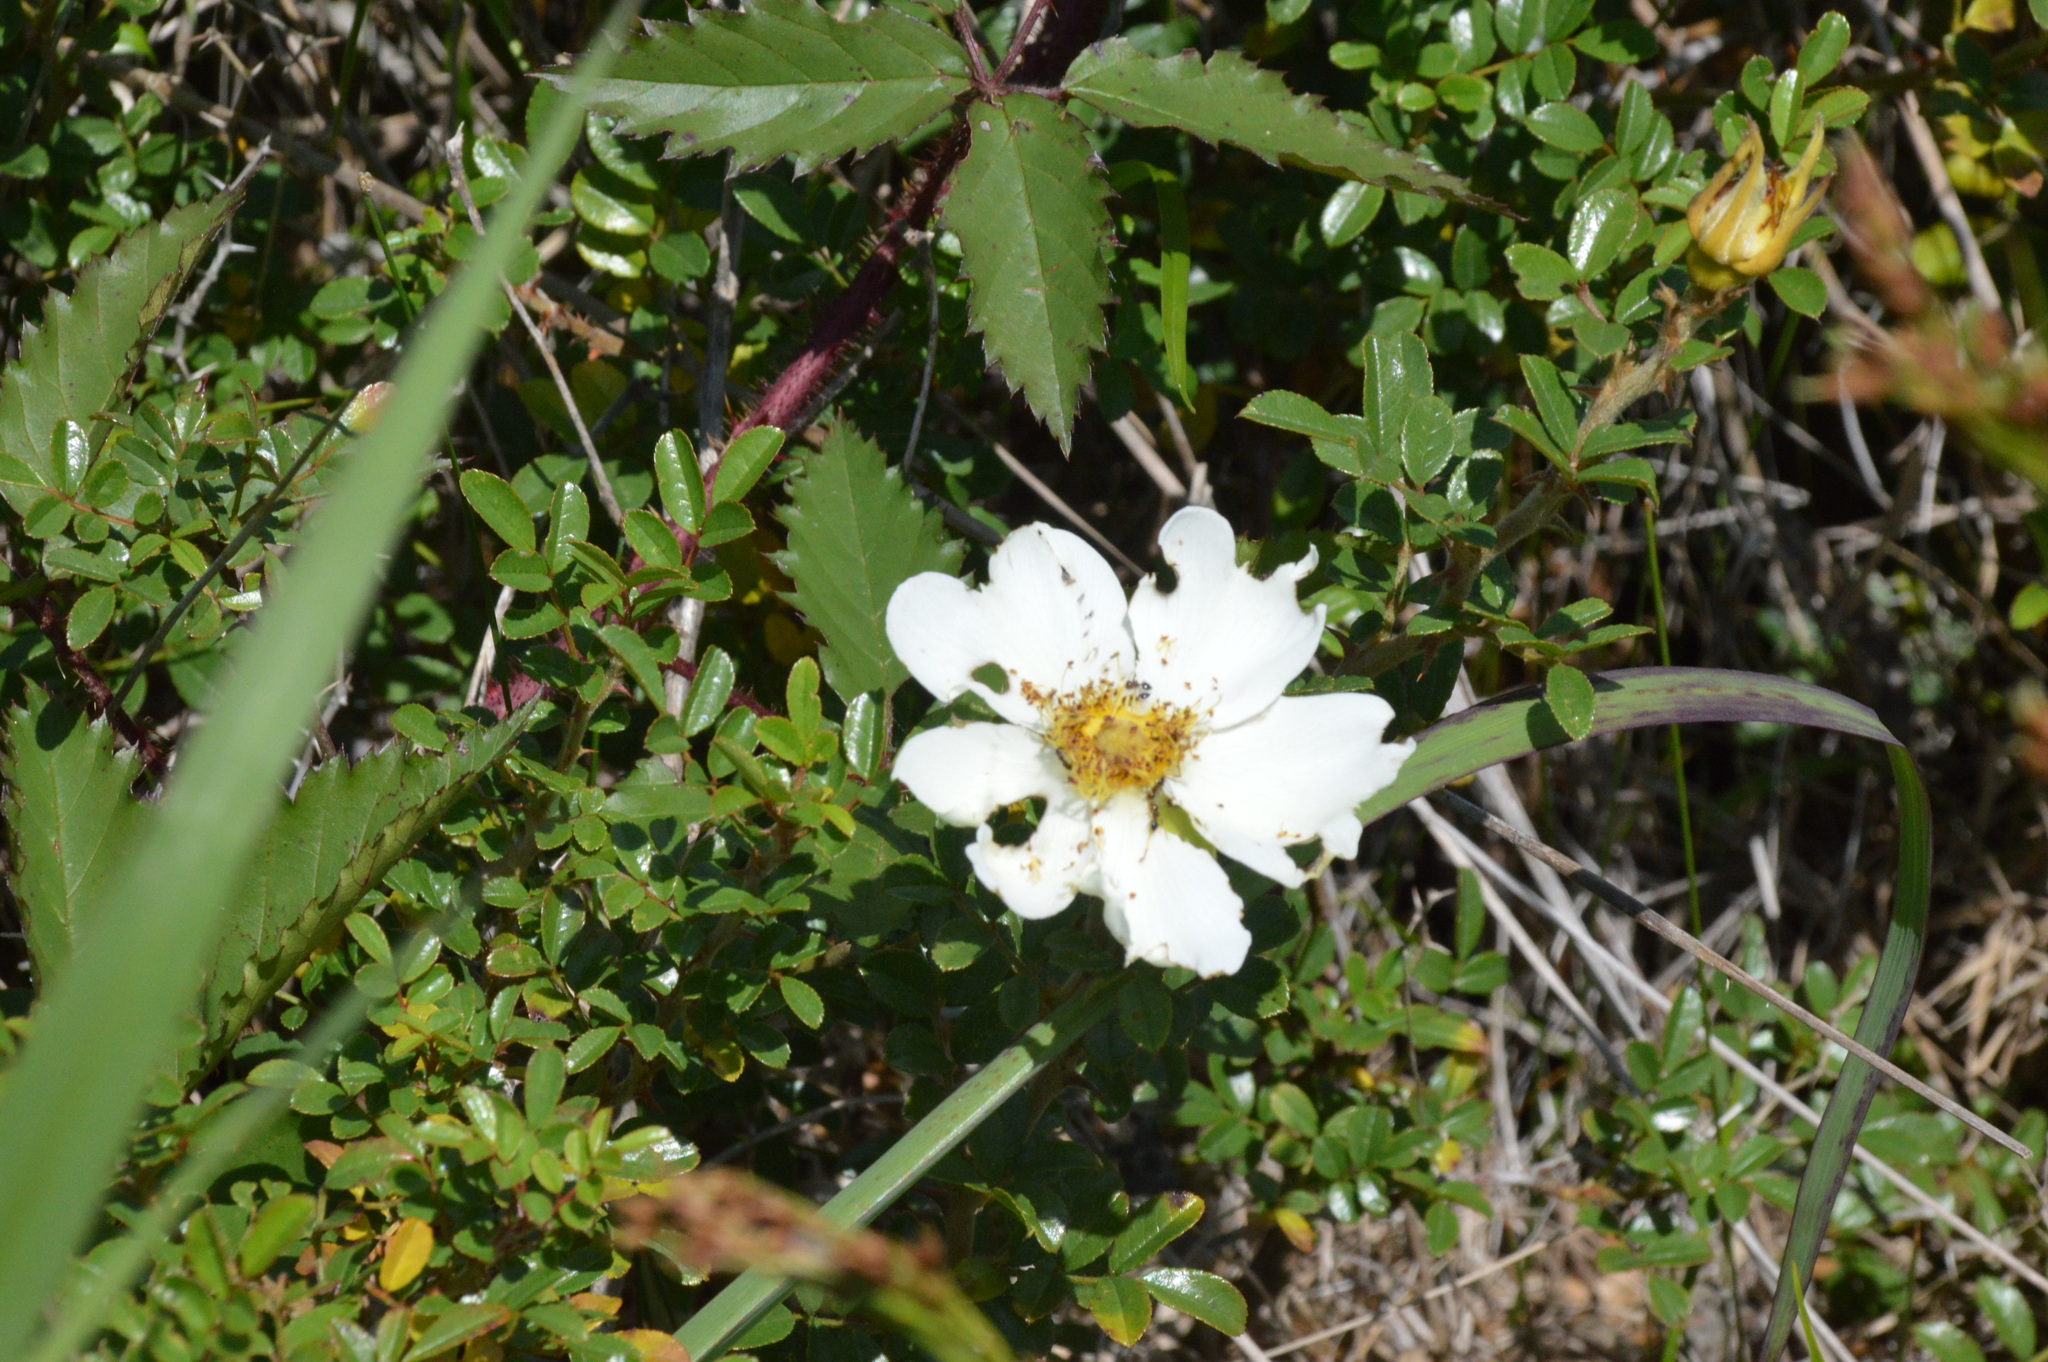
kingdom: Plantae
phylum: Tracheophyta
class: Magnoliopsida
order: Rosales
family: Rosaceae
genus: Rosa
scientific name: Rosa bracteata
